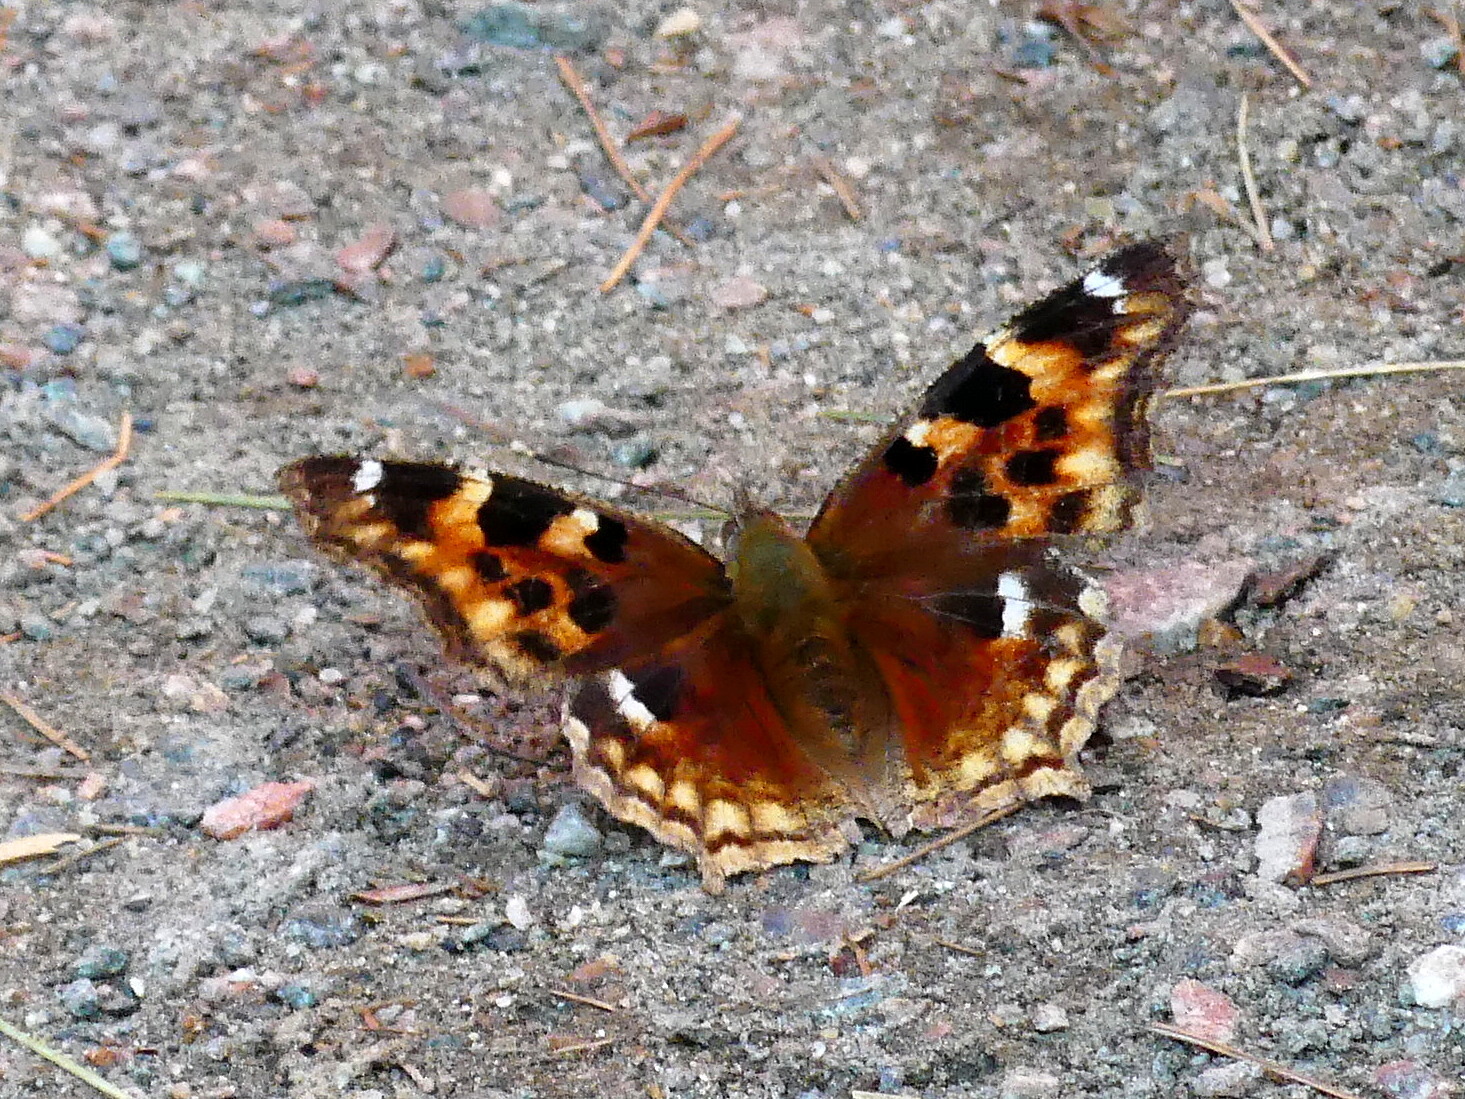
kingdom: Animalia
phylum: Arthropoda
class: Insecta
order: Lepidoptera
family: Nymphalidae
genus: Polygonia
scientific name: Polygonia vaualbum
